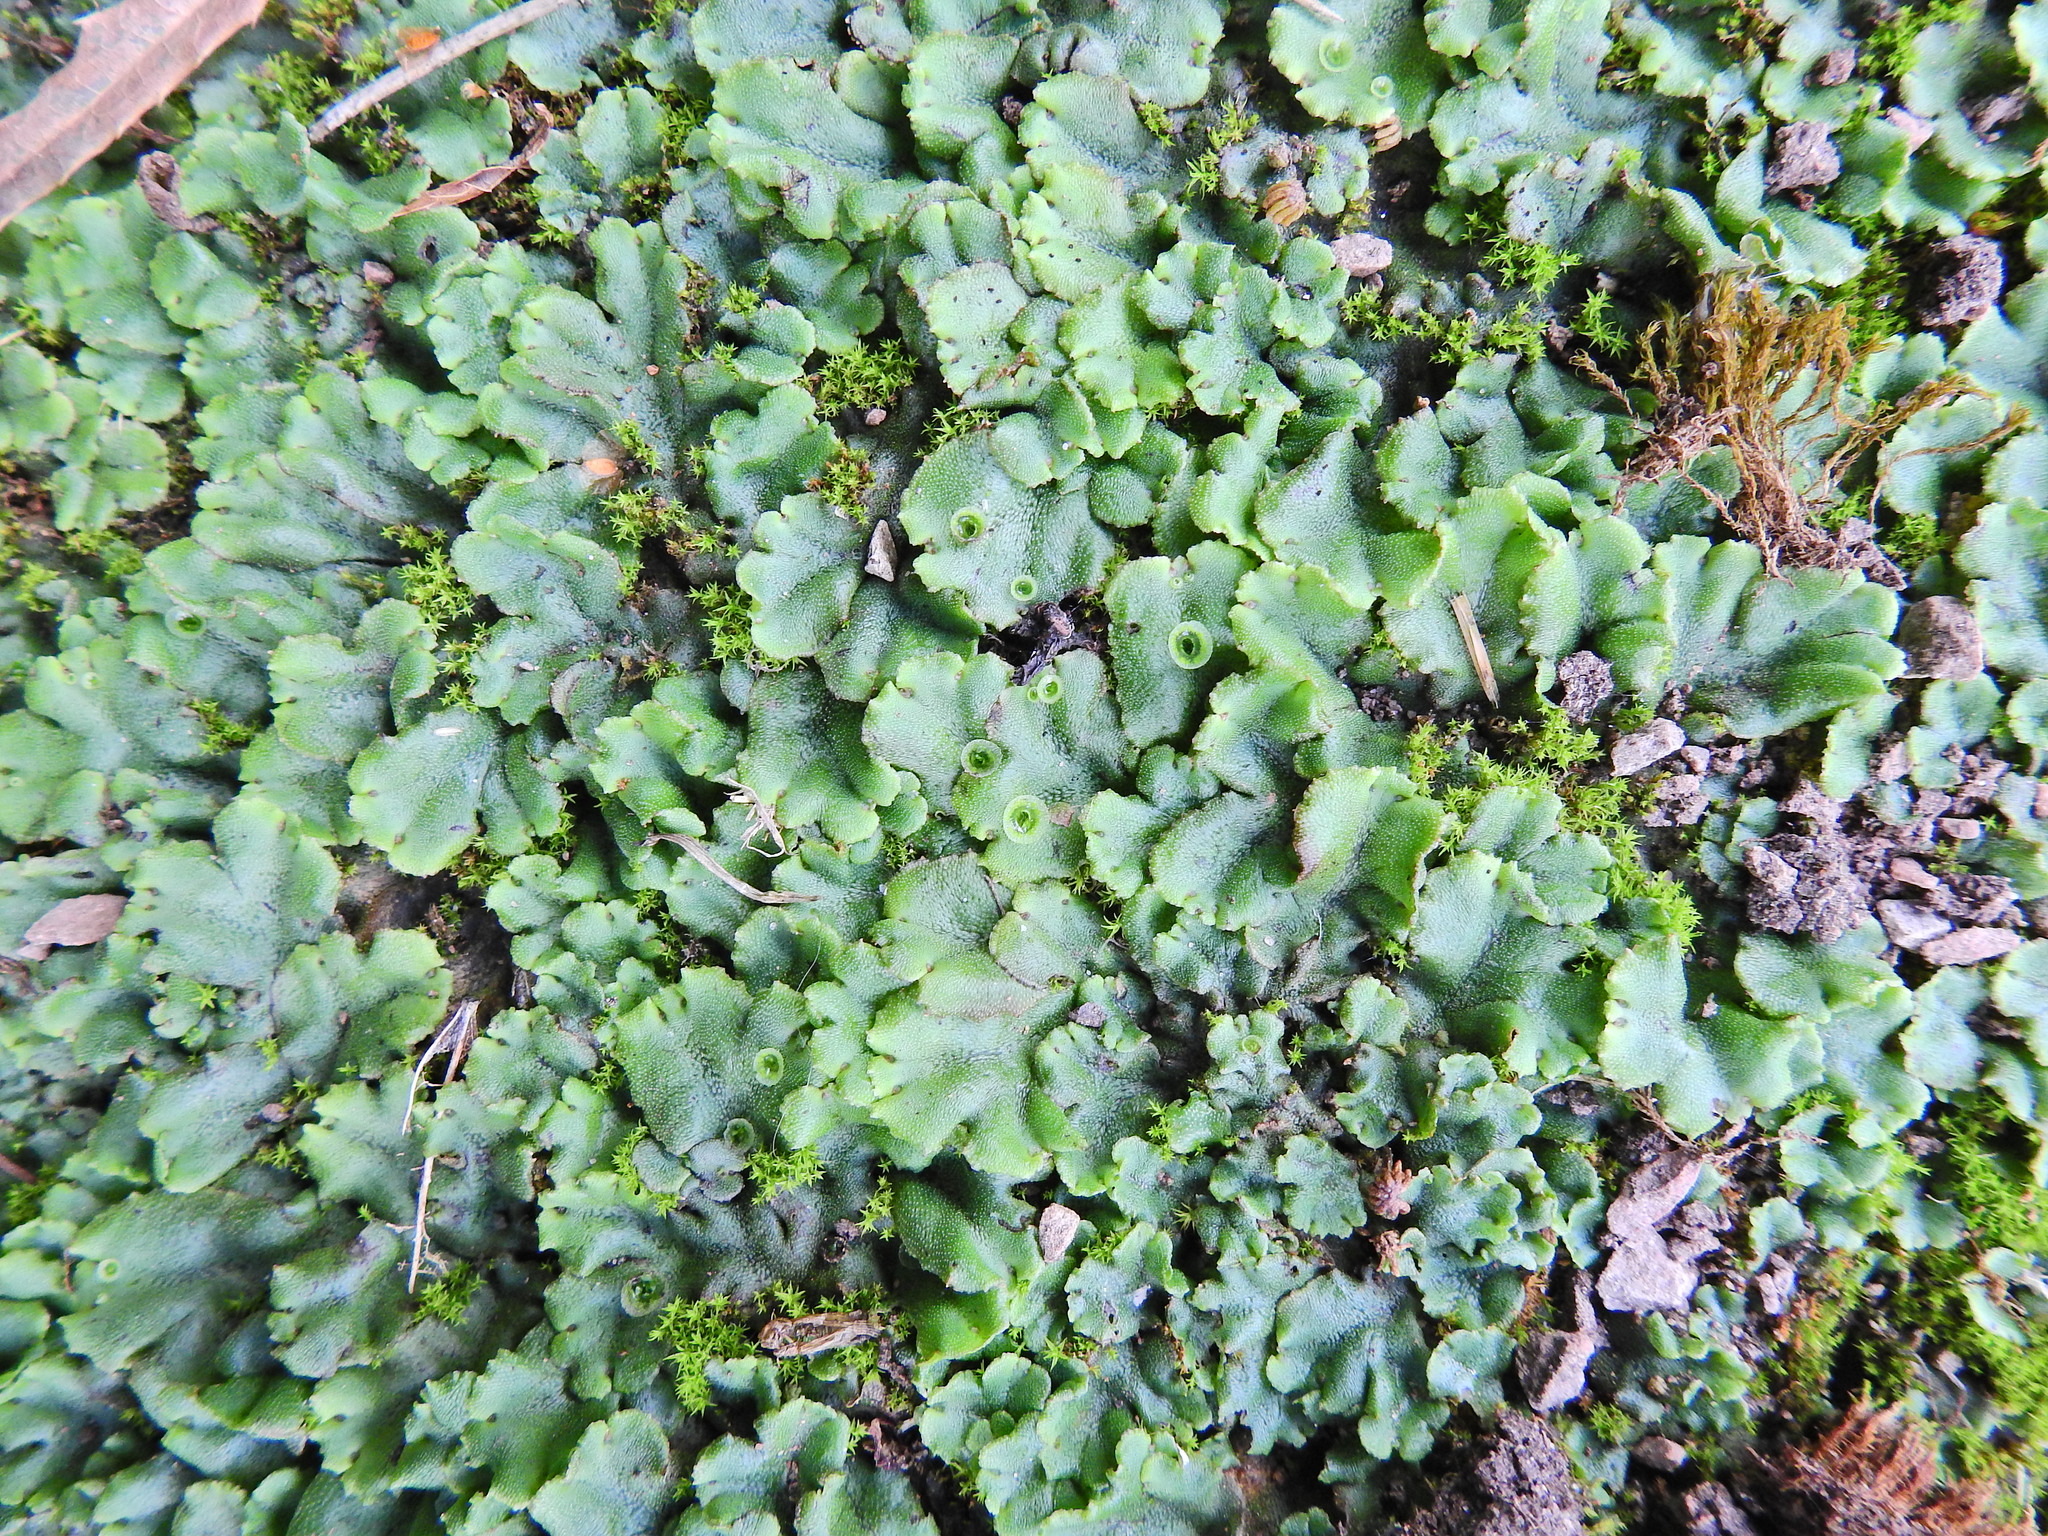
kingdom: Plantae
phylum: Marchantiophyta
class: Marchantiopsida
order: Marchantiales
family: Marchantiaceae
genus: Marchantia
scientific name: Marchantia polymorpha
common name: Common liverwort
